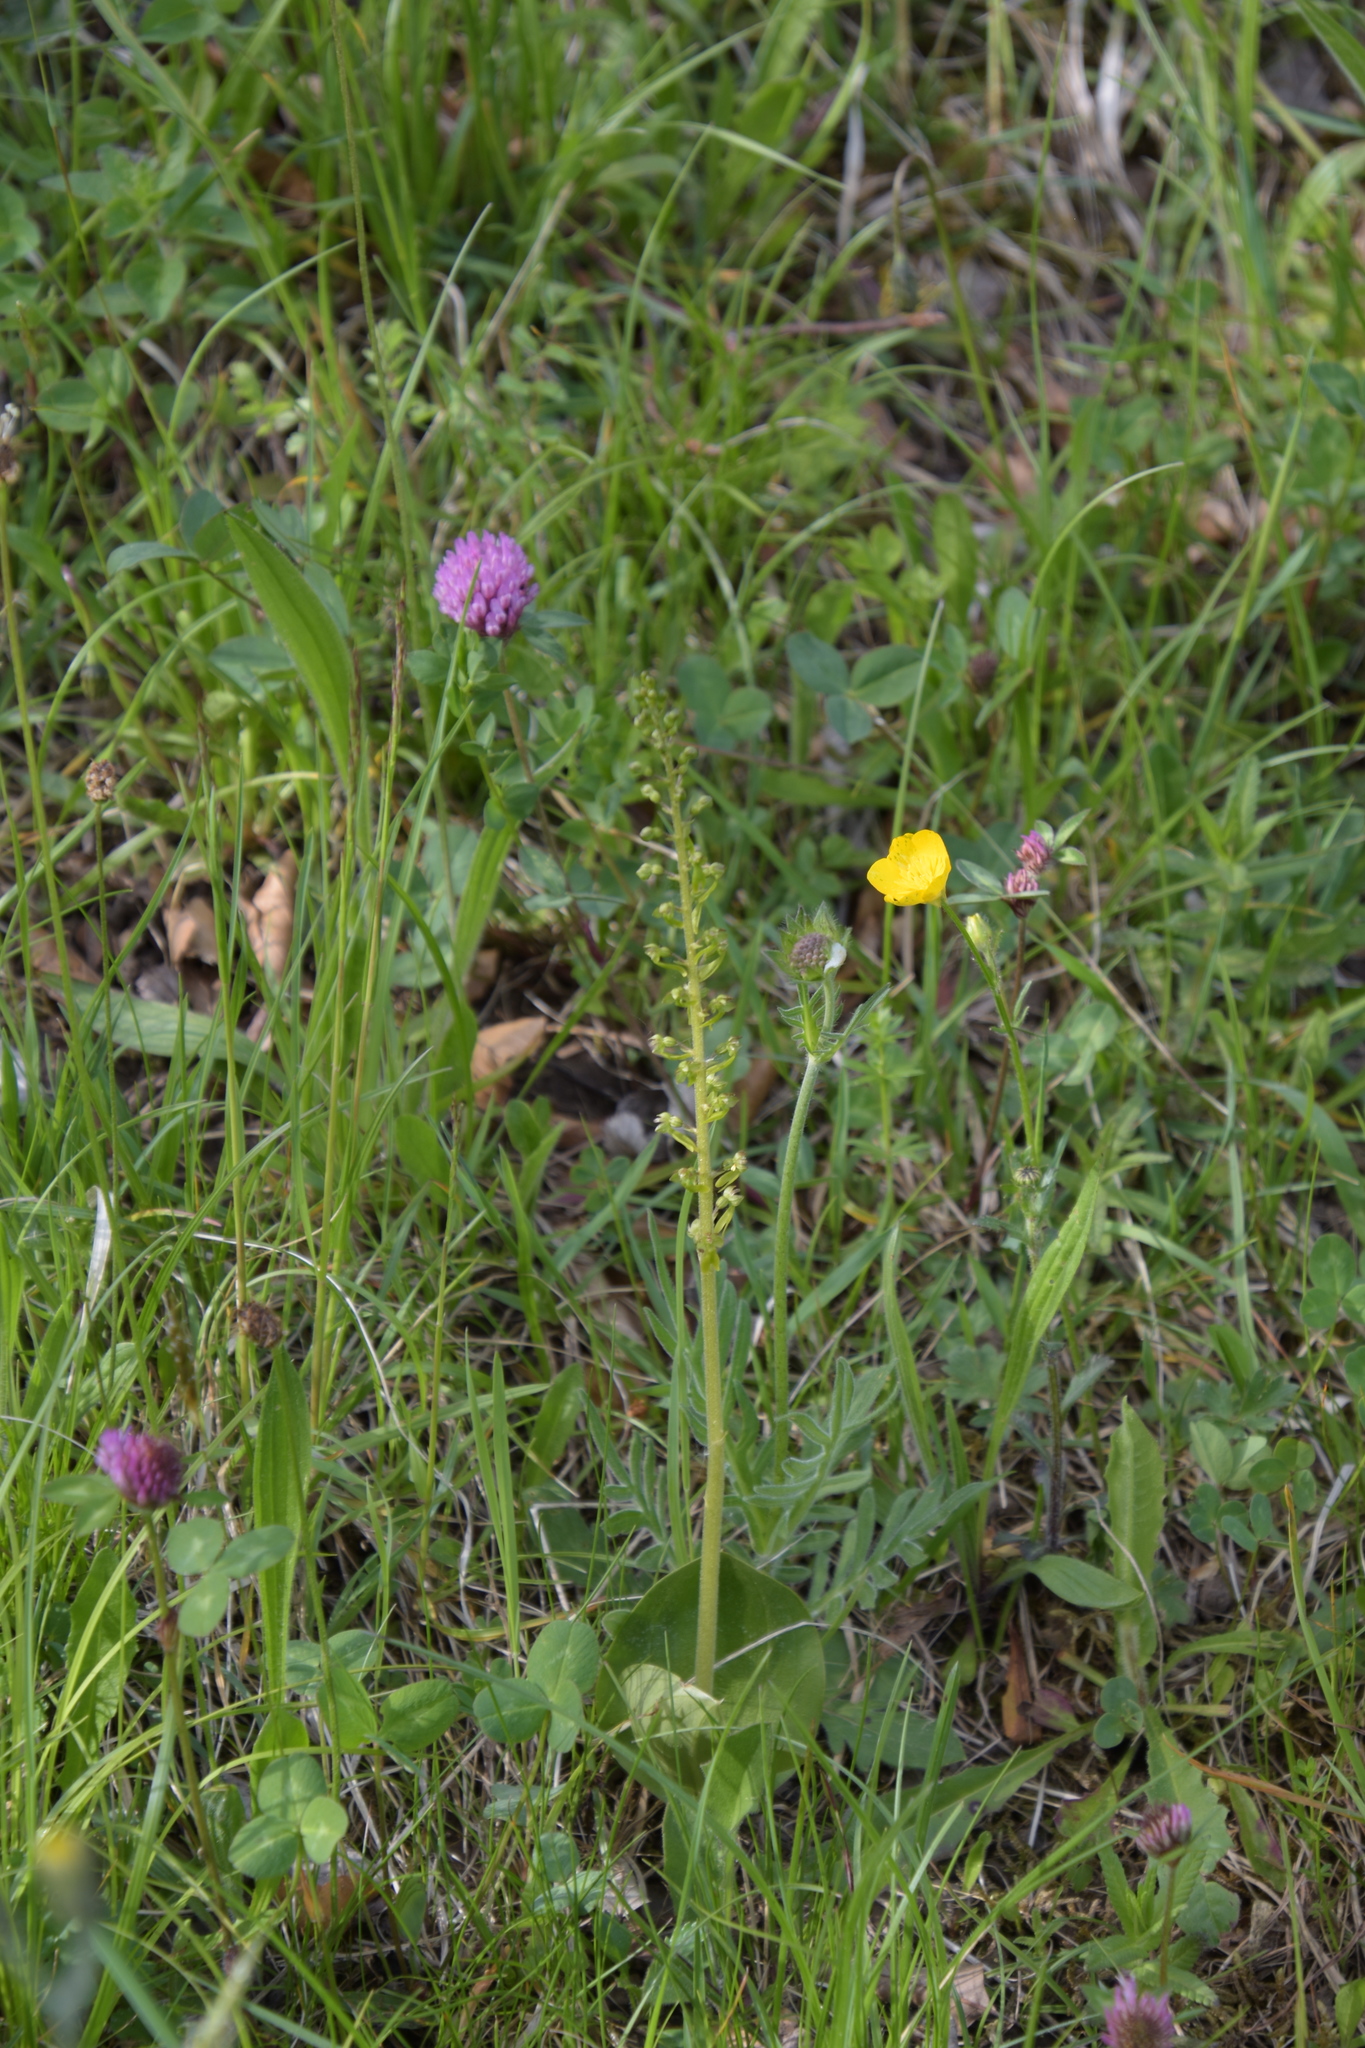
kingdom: Plantae
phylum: Tracheophyta
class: Liliopsida
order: Asparagales
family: Orchidaceae
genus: Neottia
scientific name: Neottia ovata
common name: Common twayblade
